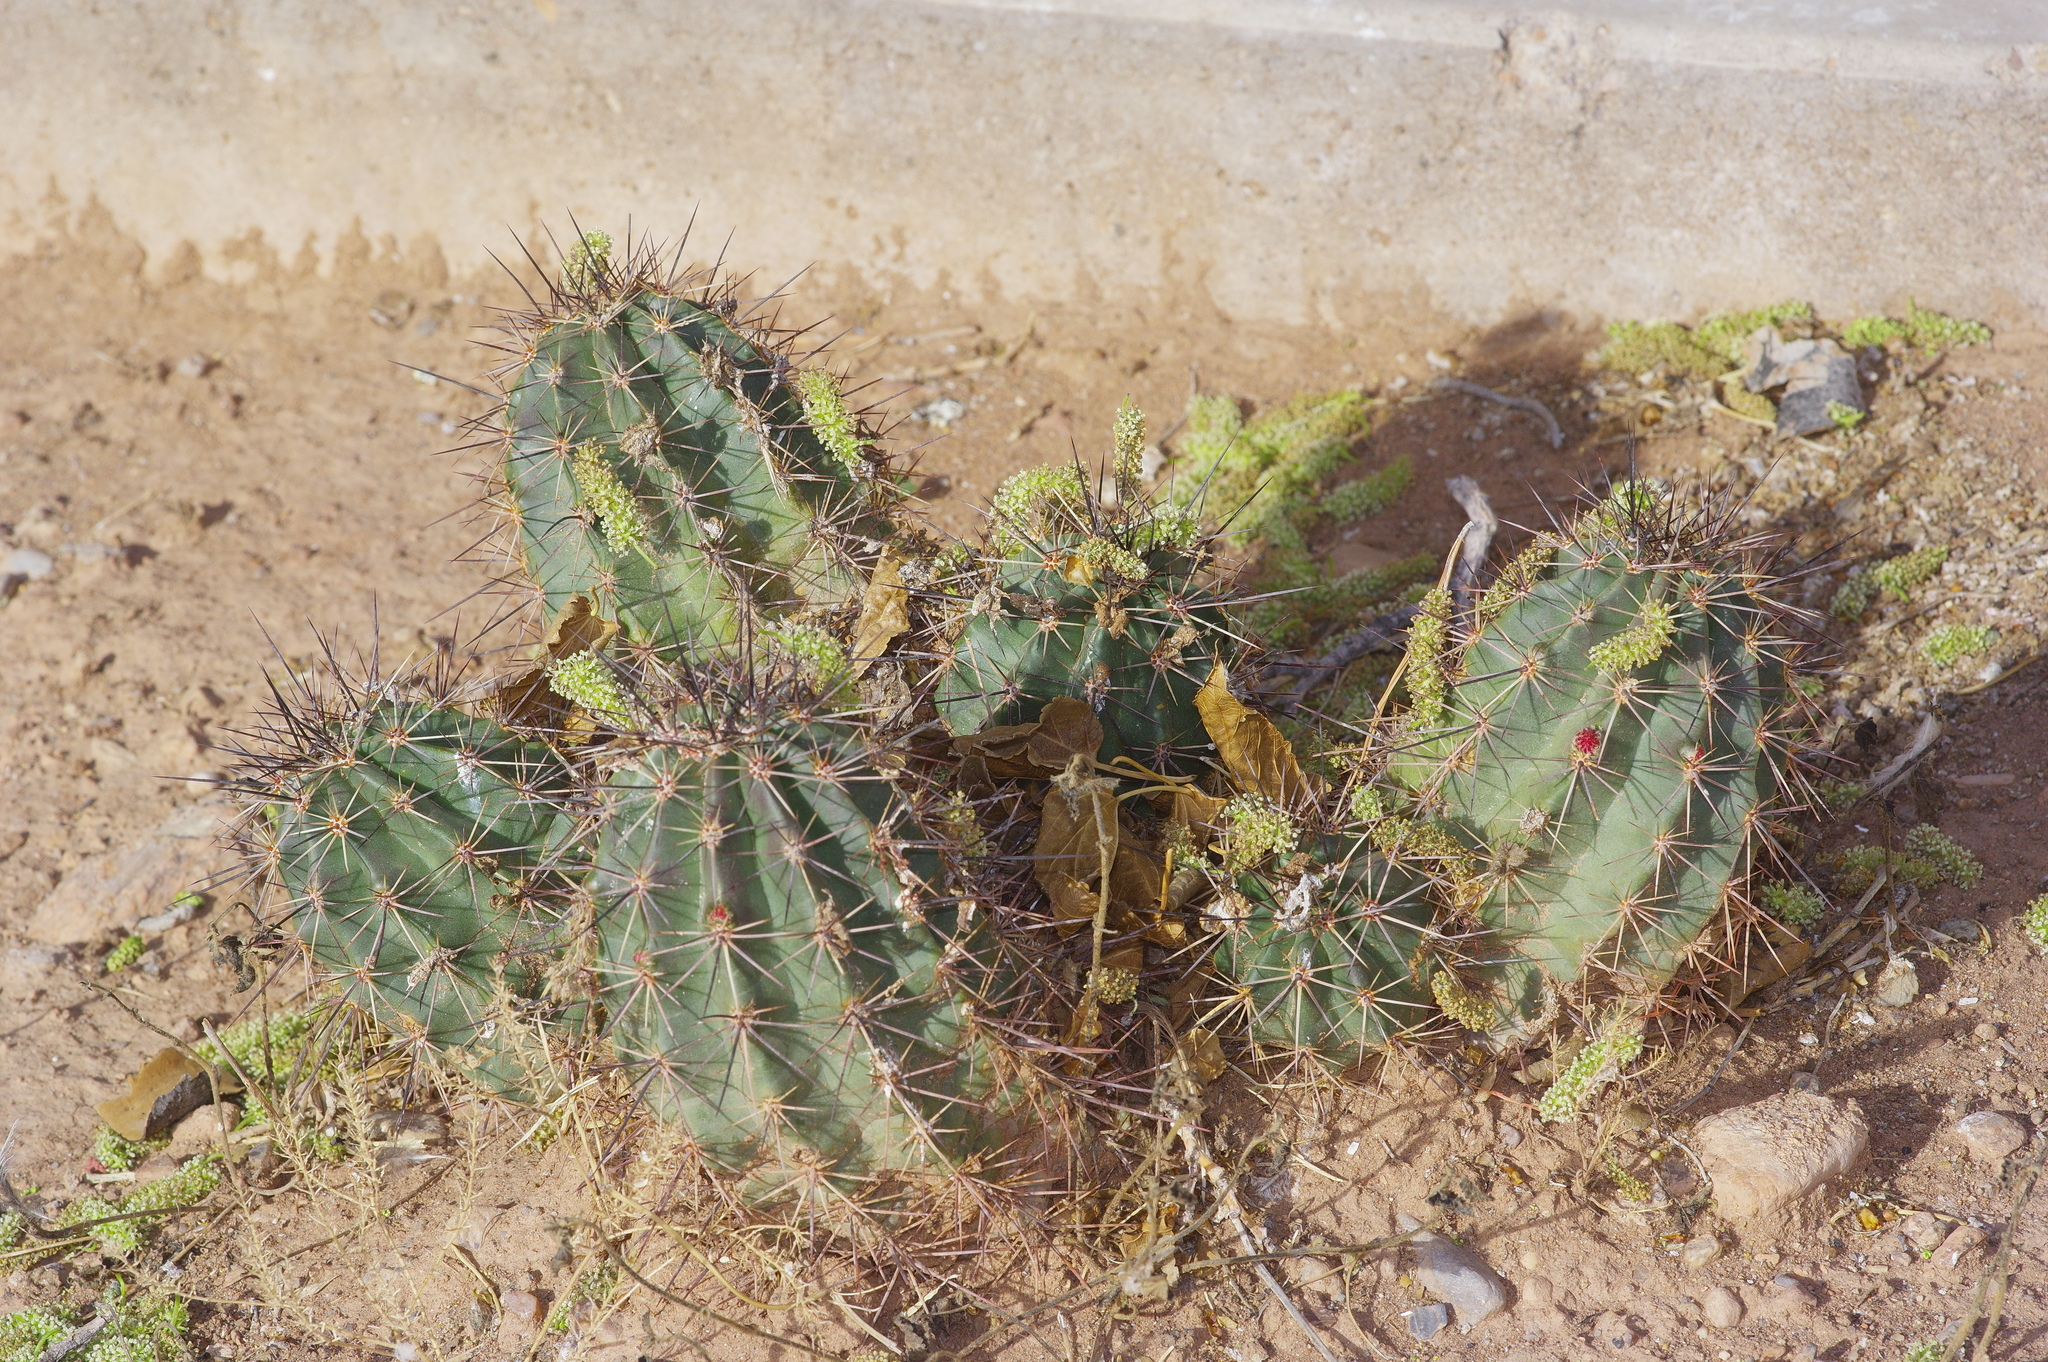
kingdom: Plantae
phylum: Tracheophyta
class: Magnoliopsida
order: Caryophyllales
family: Cactaceae
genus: Echinocereus
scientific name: Echinocereus coccineus
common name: Scarlet hedgehog cactus
